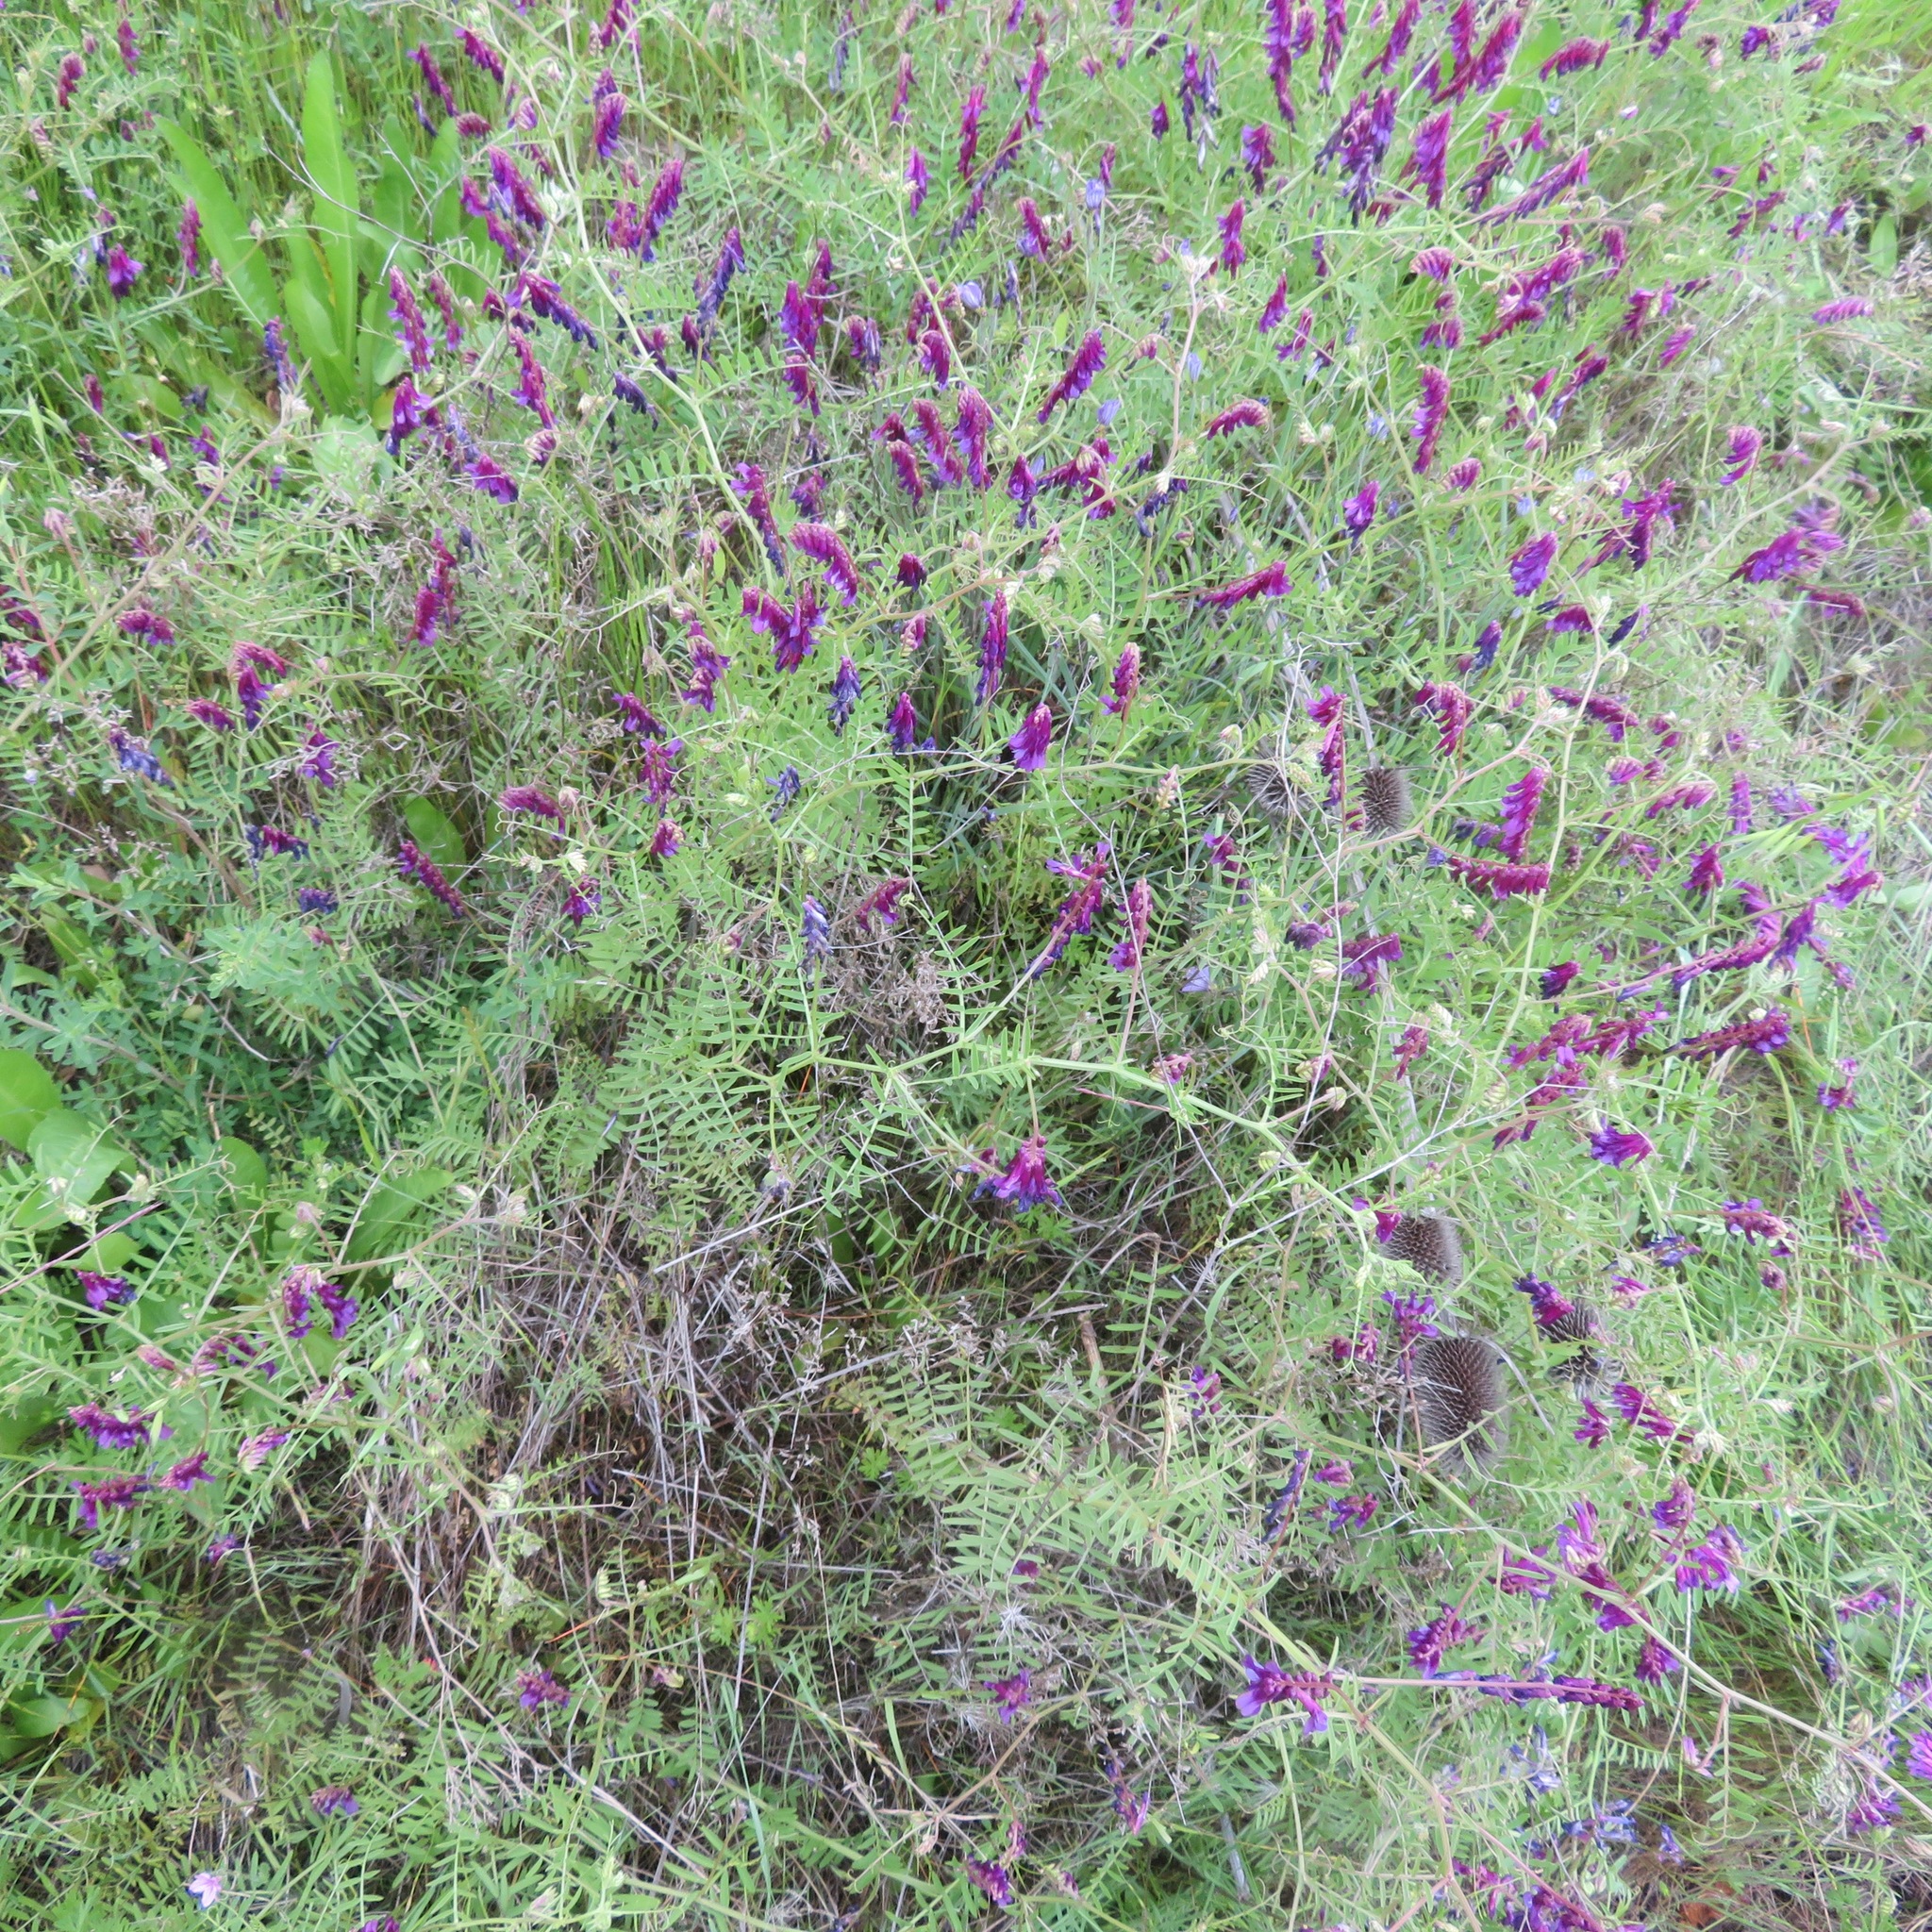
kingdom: Plantae
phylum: Tracheophyta
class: Magnoliopsida
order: Fabales
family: Fabaceae
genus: Vicia
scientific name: Vicia villosa
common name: Fodder vetch
